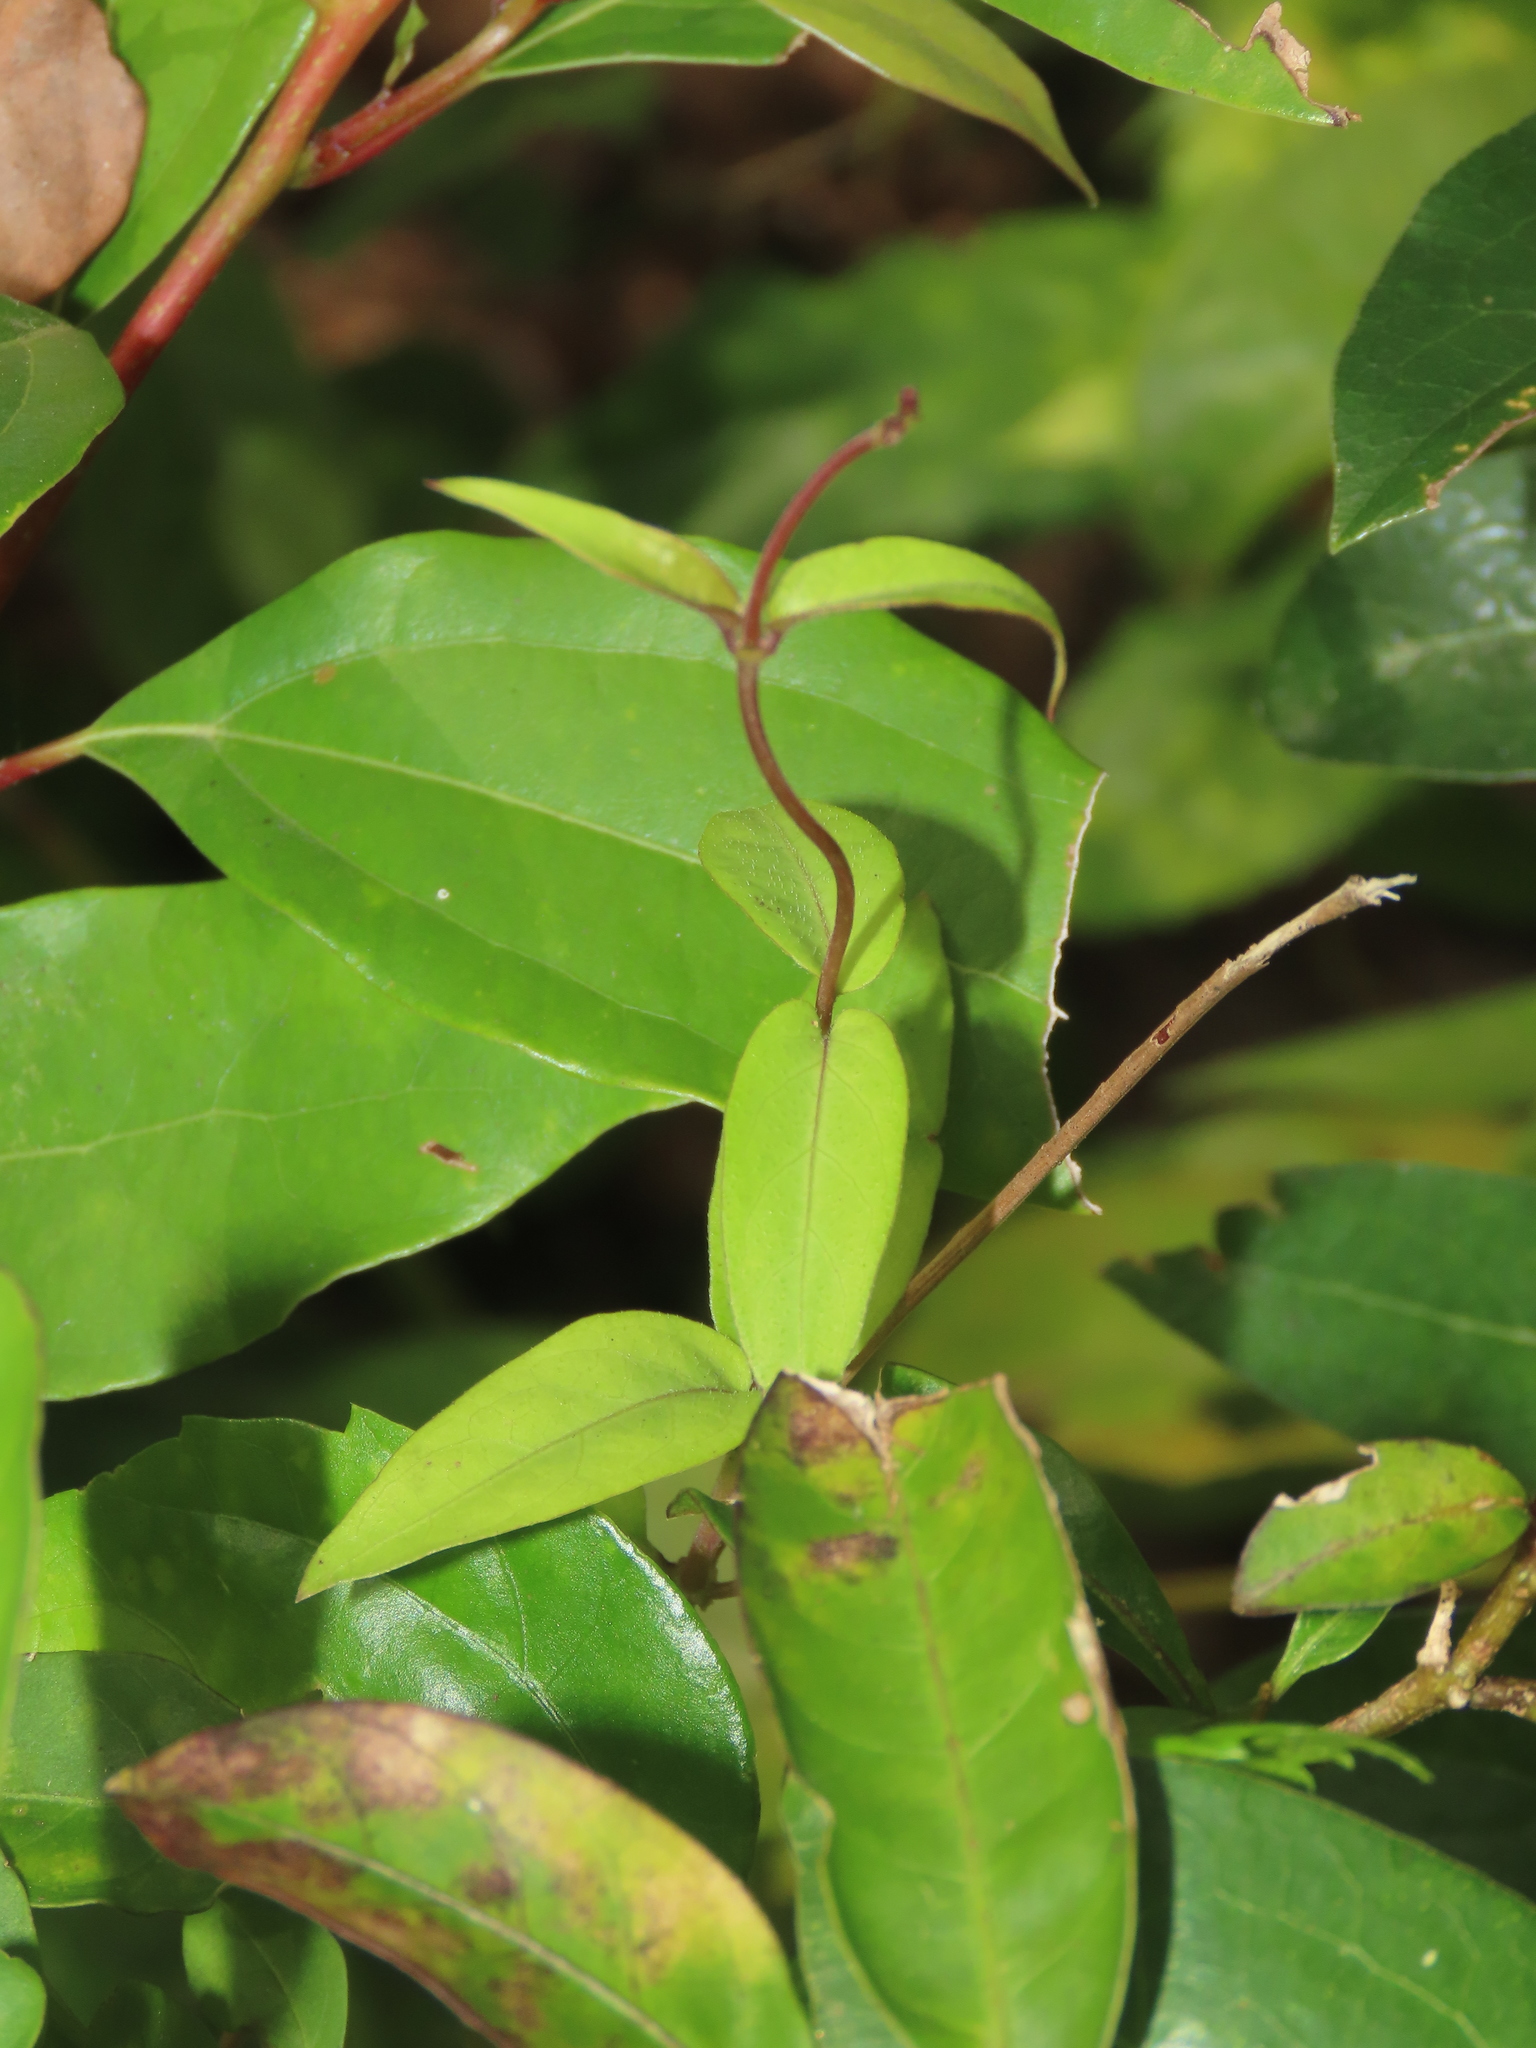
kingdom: Plantae
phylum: Tracheophyta
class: Magnoliopsida
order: Gentianales
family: Rubiaceae
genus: Paederia
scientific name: Paederia foetida
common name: Stinkvine
